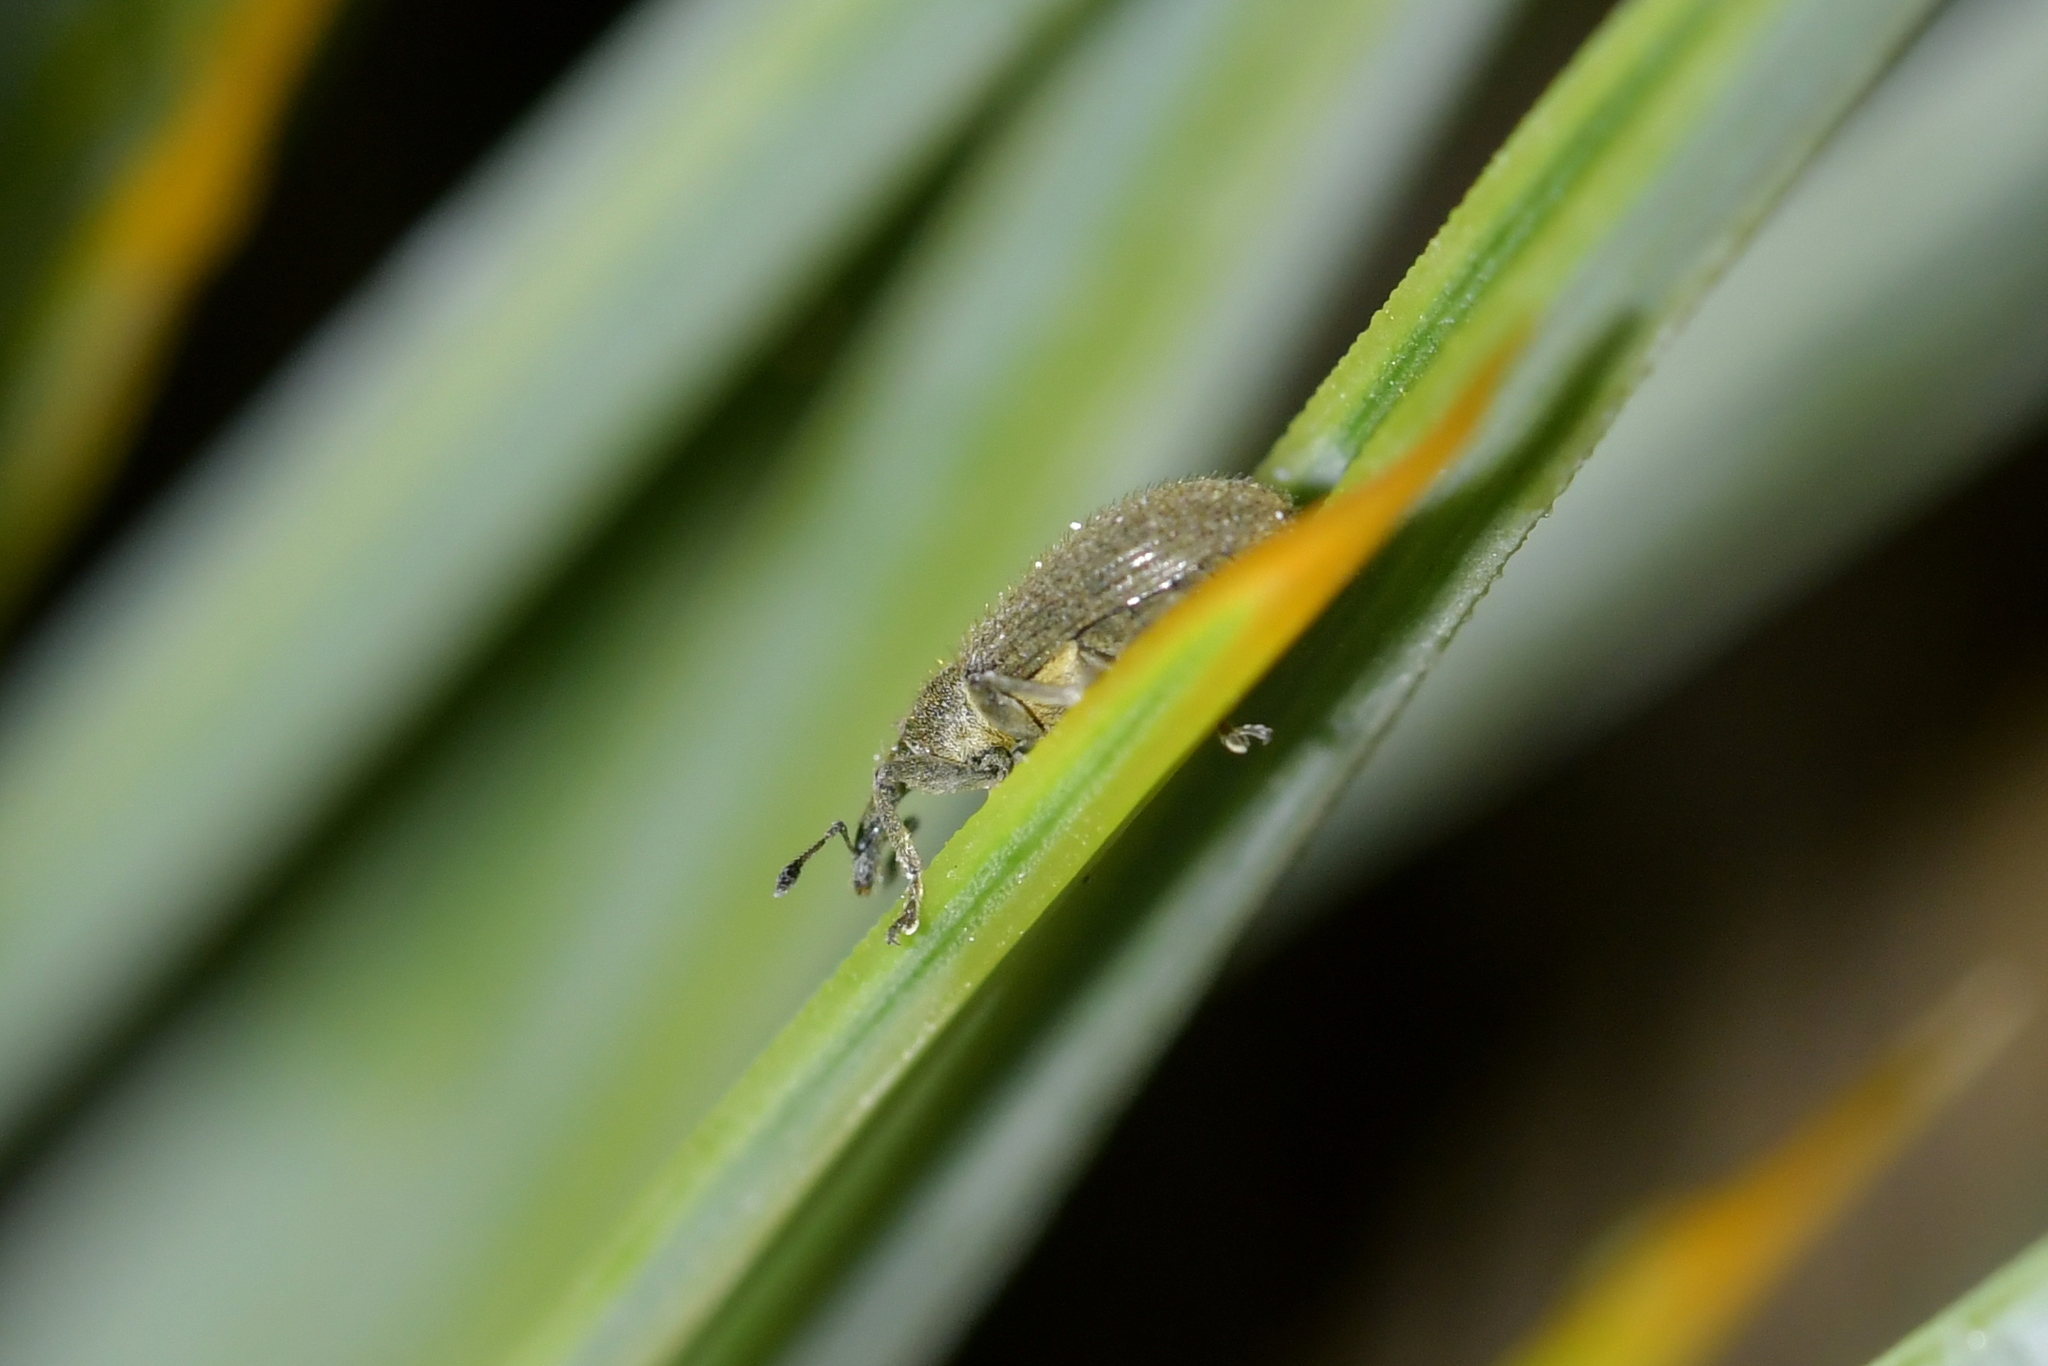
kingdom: Animalia
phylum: Arthropoda
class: Insecta
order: Coleoptera
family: Curculionidae
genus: Eugnomus
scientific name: Eugnomus durvillei
